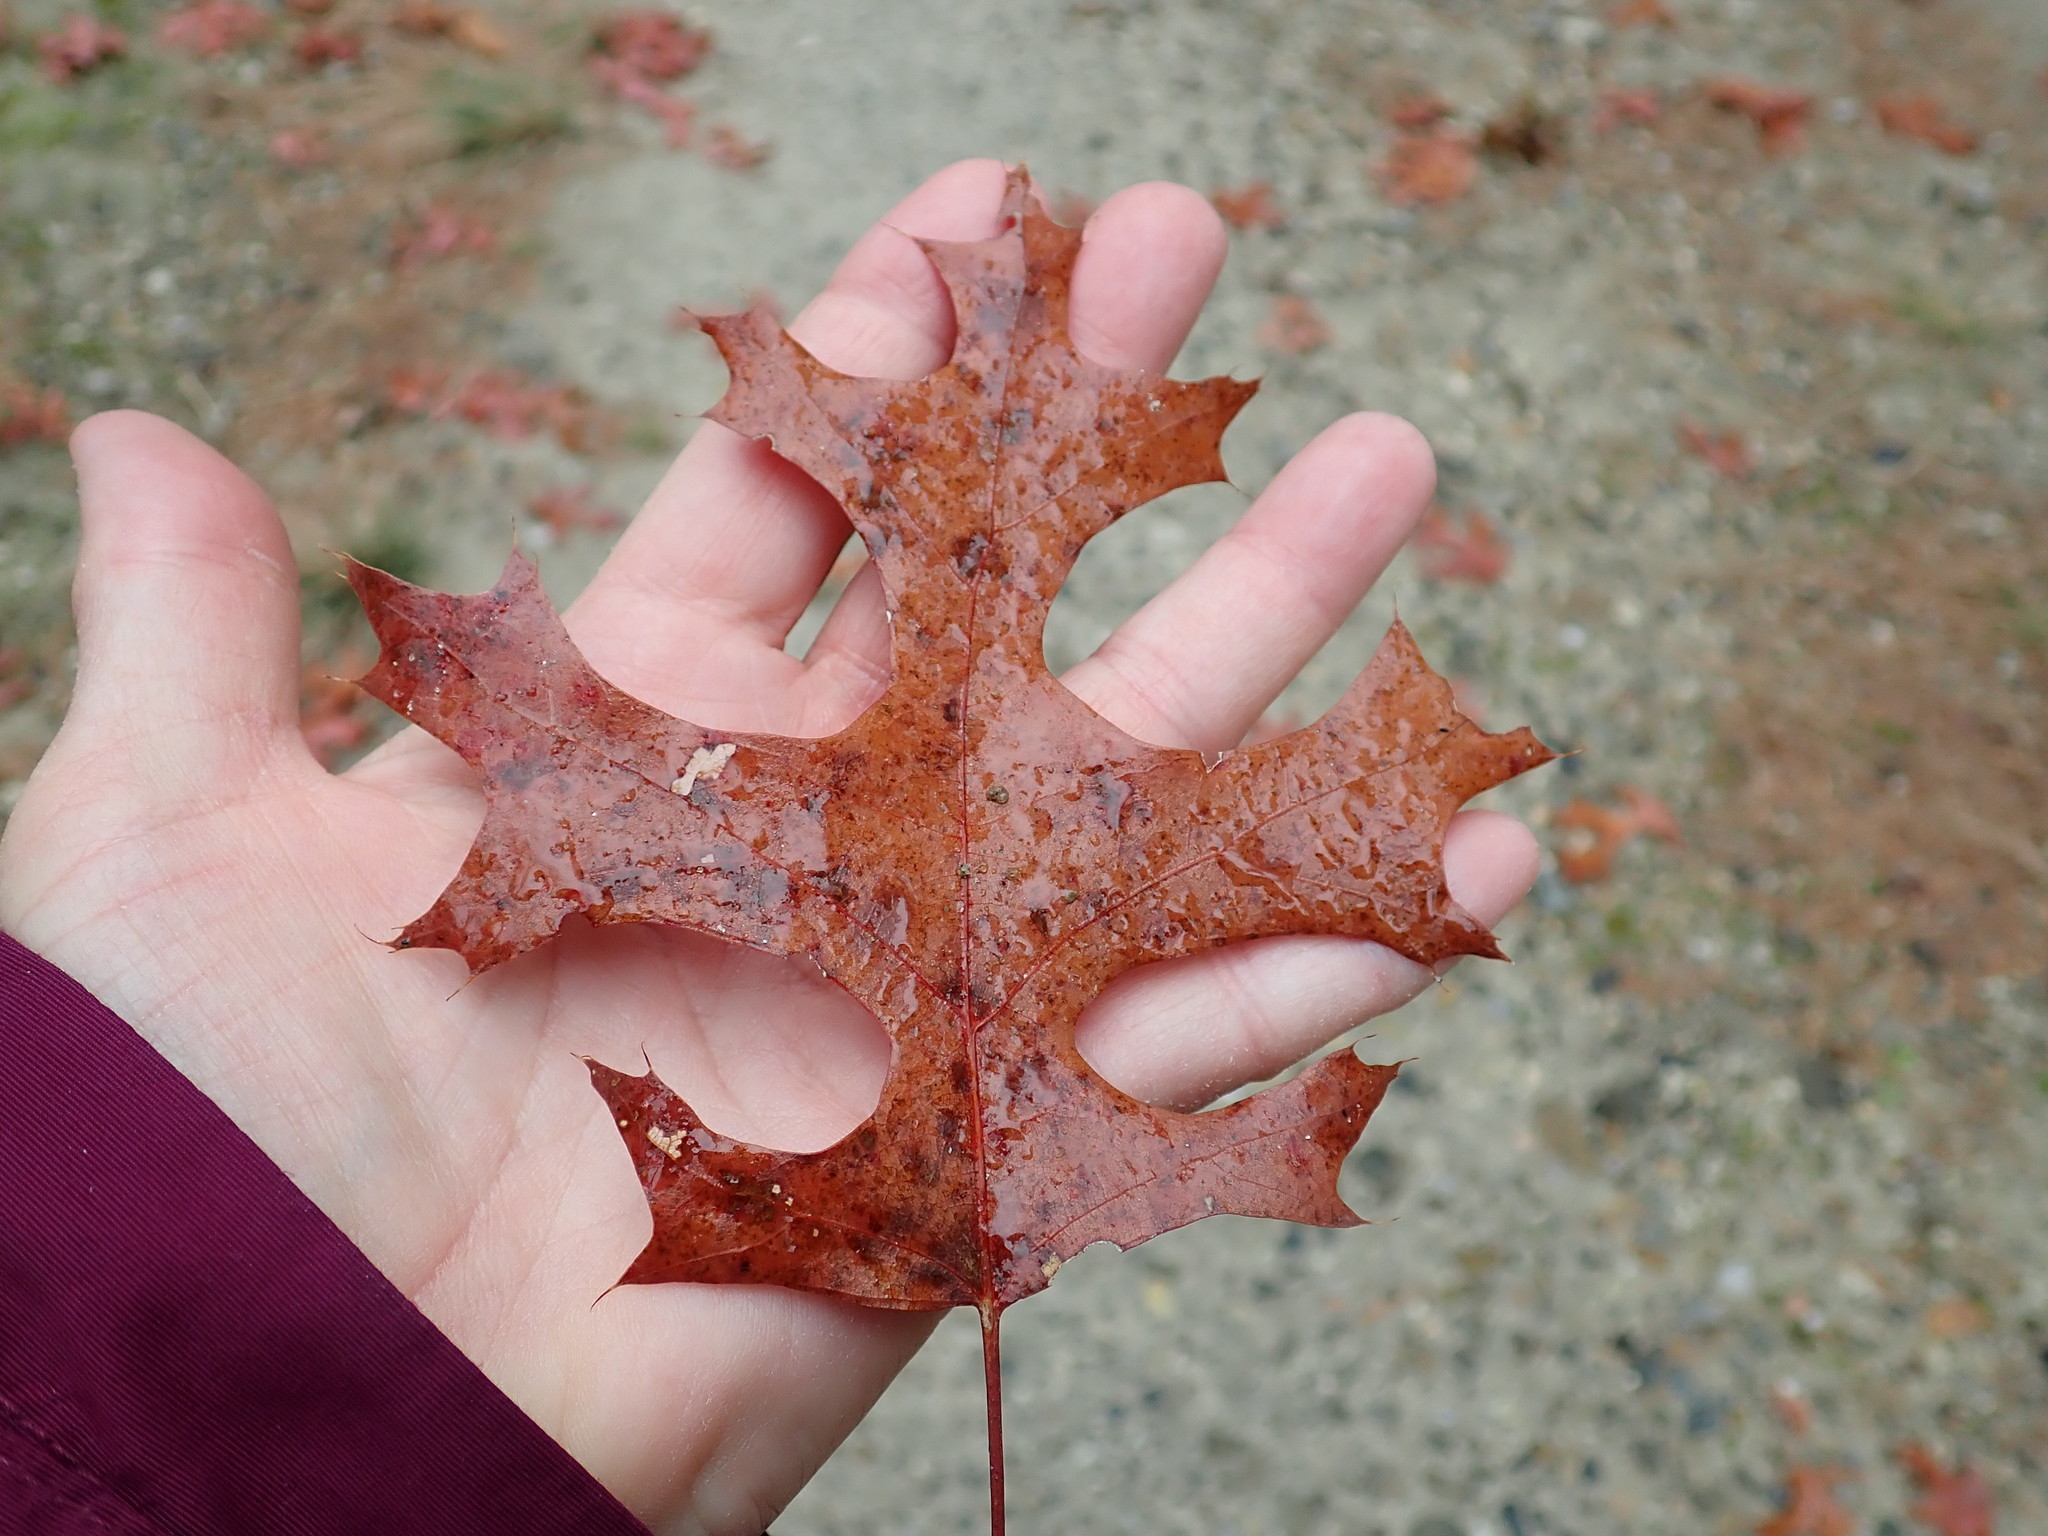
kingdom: Plantae
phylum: Tracheophyta
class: Magnoliopsida
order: Fagales
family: Fagaceae
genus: Quercus
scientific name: Quercus coccinea
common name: Scarlet oak
